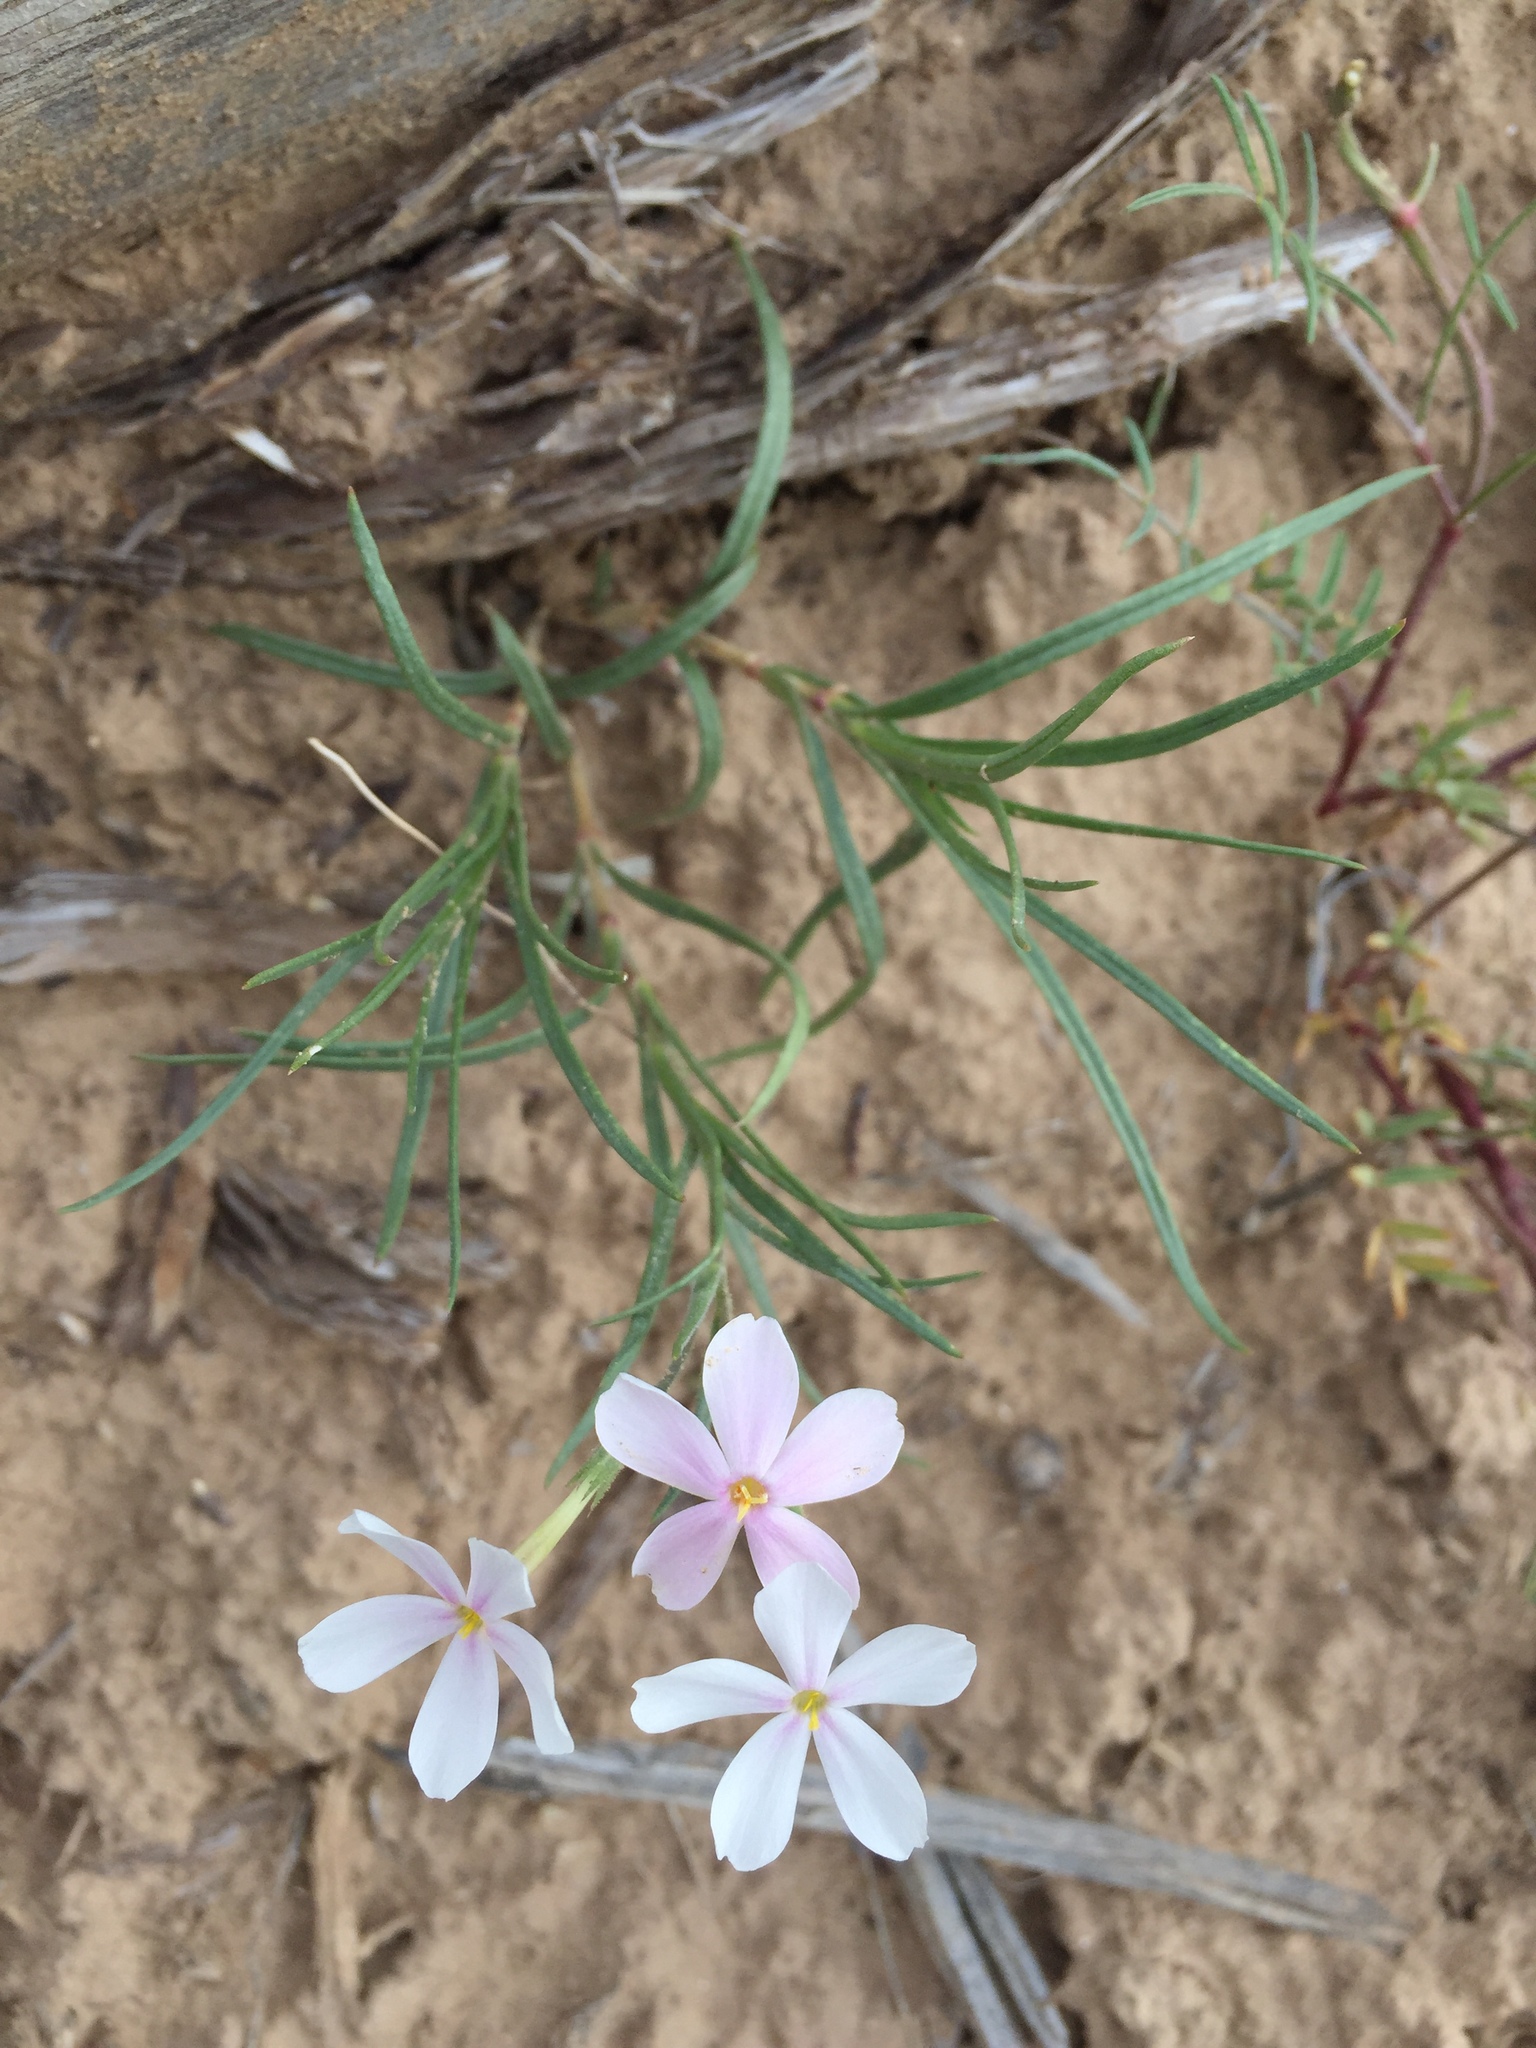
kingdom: Plantae
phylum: Tracheophyta
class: Magnoliopsida
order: Ericales
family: Polemoniaceae
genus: Phlox
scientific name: Phlox longifolia
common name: Longleaf phlox
